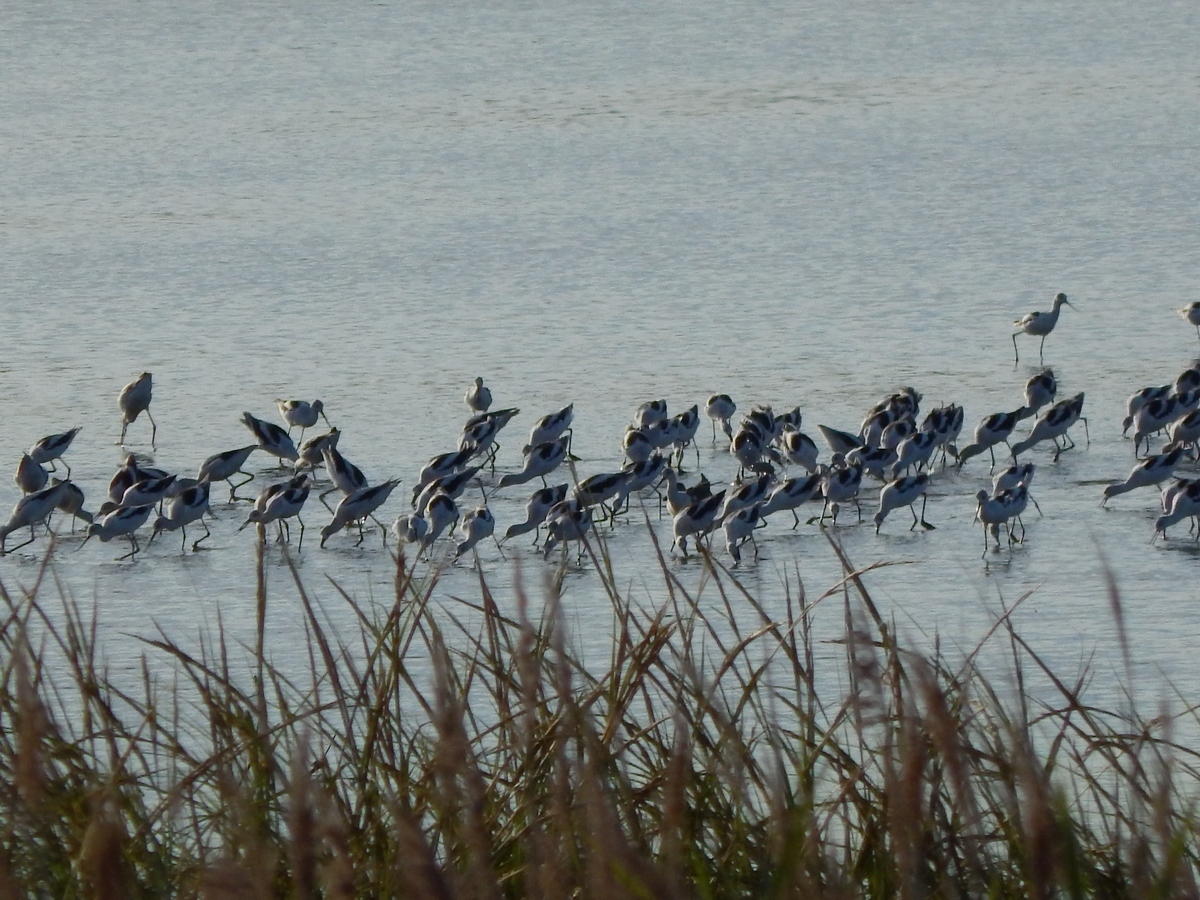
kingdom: Animalia
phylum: Chordata
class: Aves
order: Charadriiformes
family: Recurvirostridae
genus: Recurvirostra
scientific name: Recurvirostra americana
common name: American avocet
